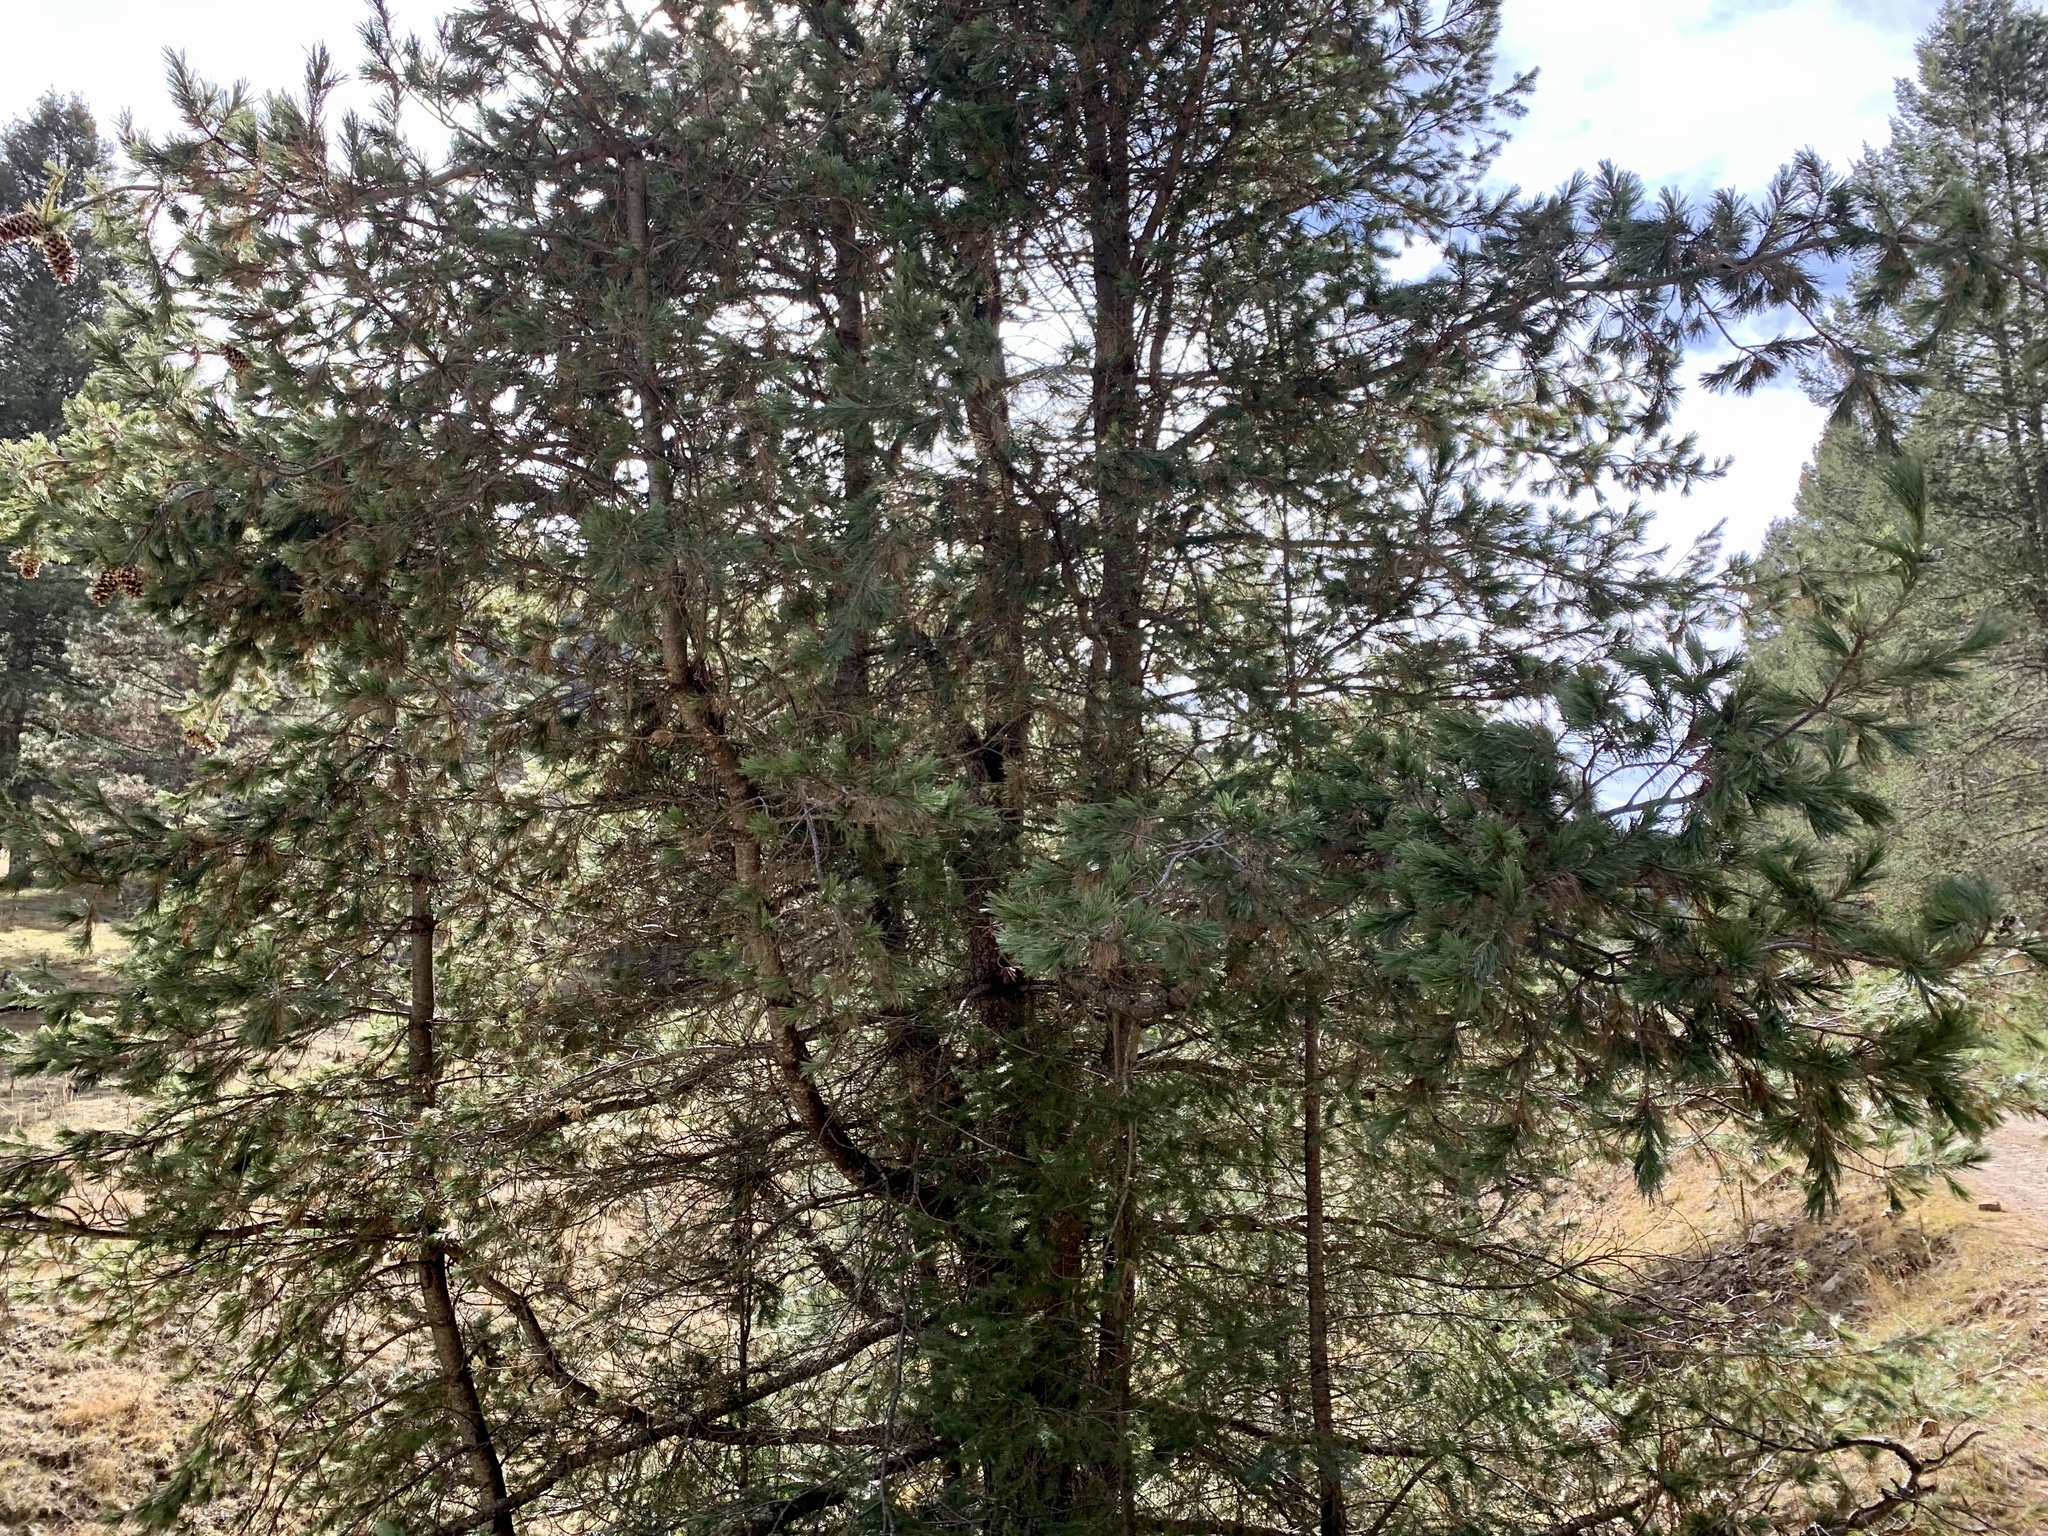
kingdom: Plantae
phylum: Tracheophyta
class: Pinopsida
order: Pinales
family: Pinaceae
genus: Pinus
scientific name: Pinus strobiformis
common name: Southwestern white pine
